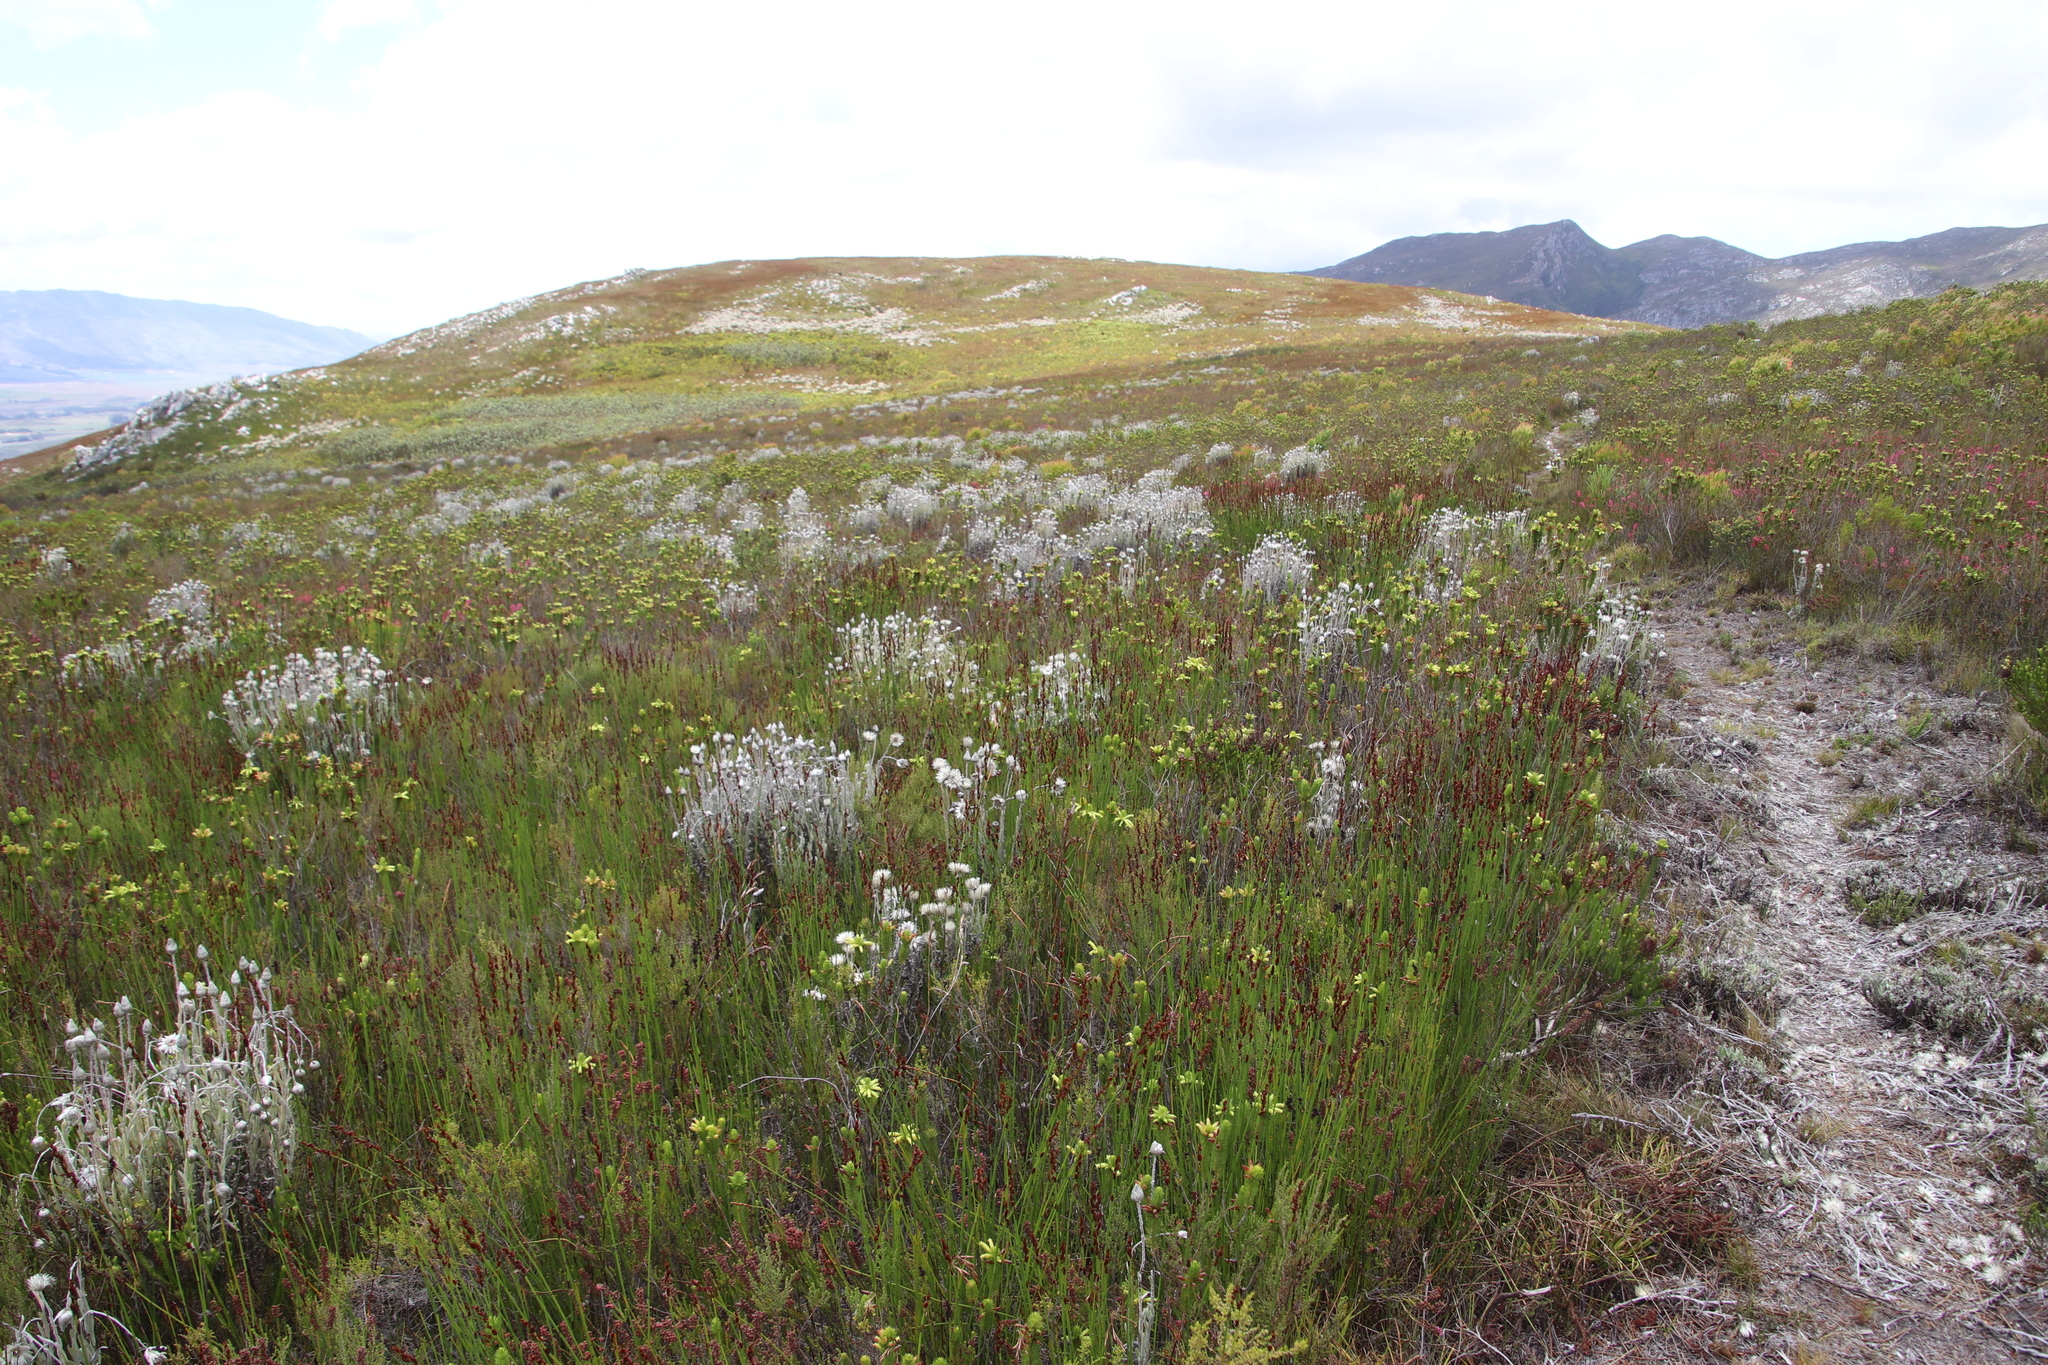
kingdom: Plantae
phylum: Tracheophyta
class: Magnoliopsida
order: Asterales
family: Asteraceae
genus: Syncarpha
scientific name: Syncarpha vestita
